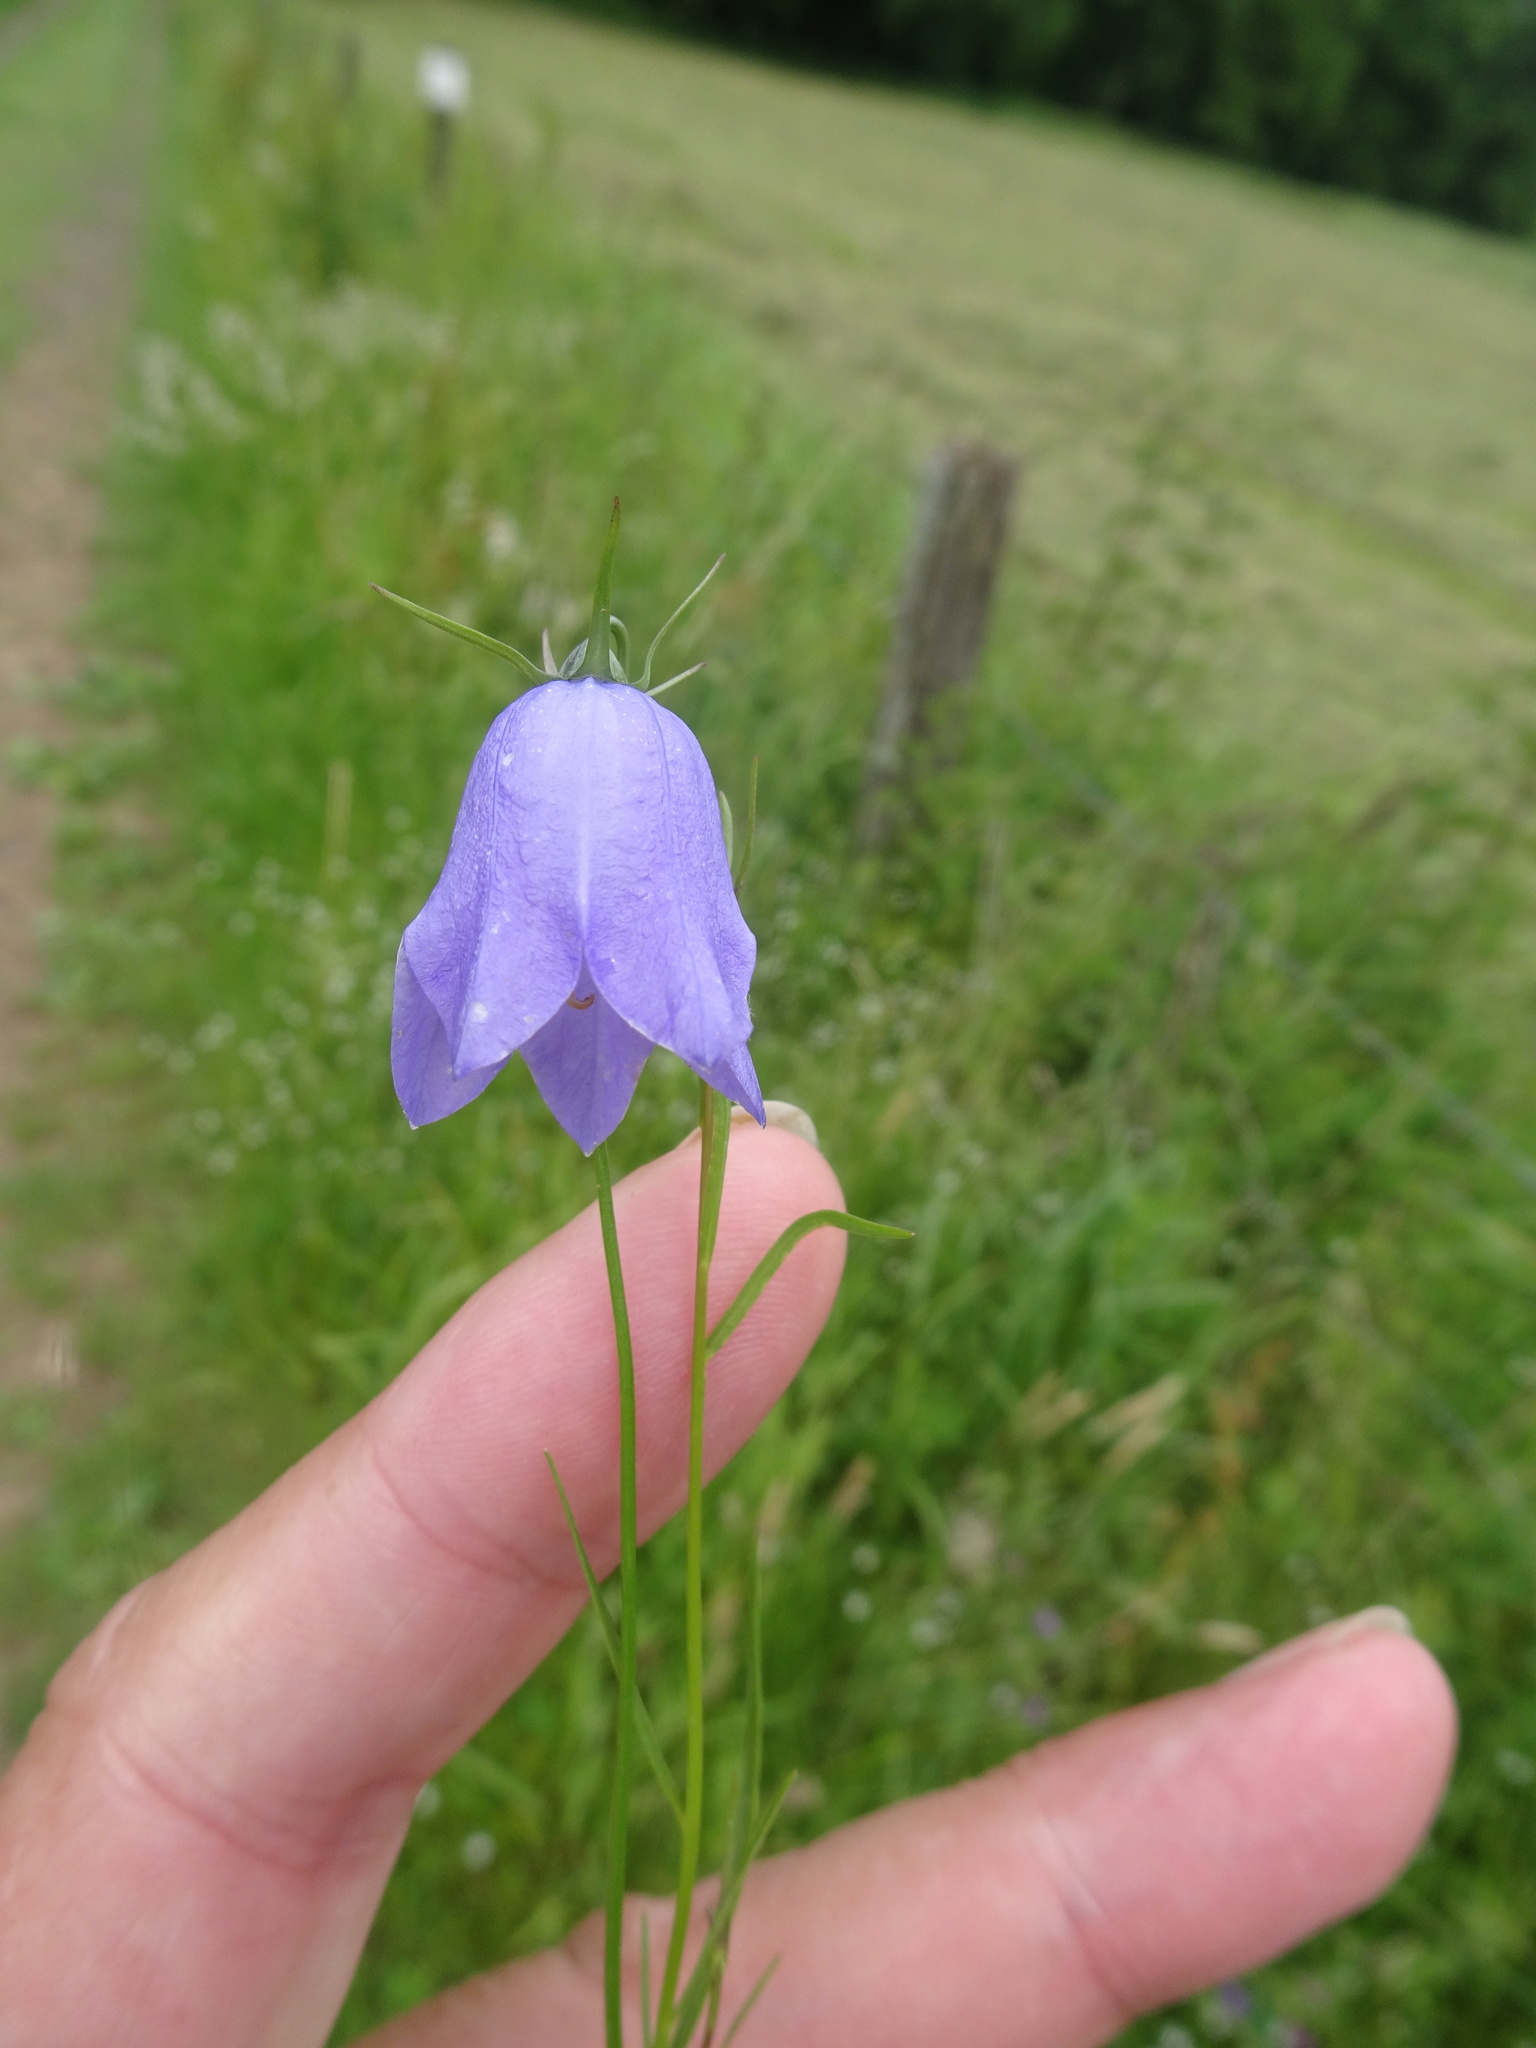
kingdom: Plantae
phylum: Tracheophyta
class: Magnoliopsida
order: Asterales
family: Campanulaceae
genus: Campanula
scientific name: Campanula rotundifolia
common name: Harebell
